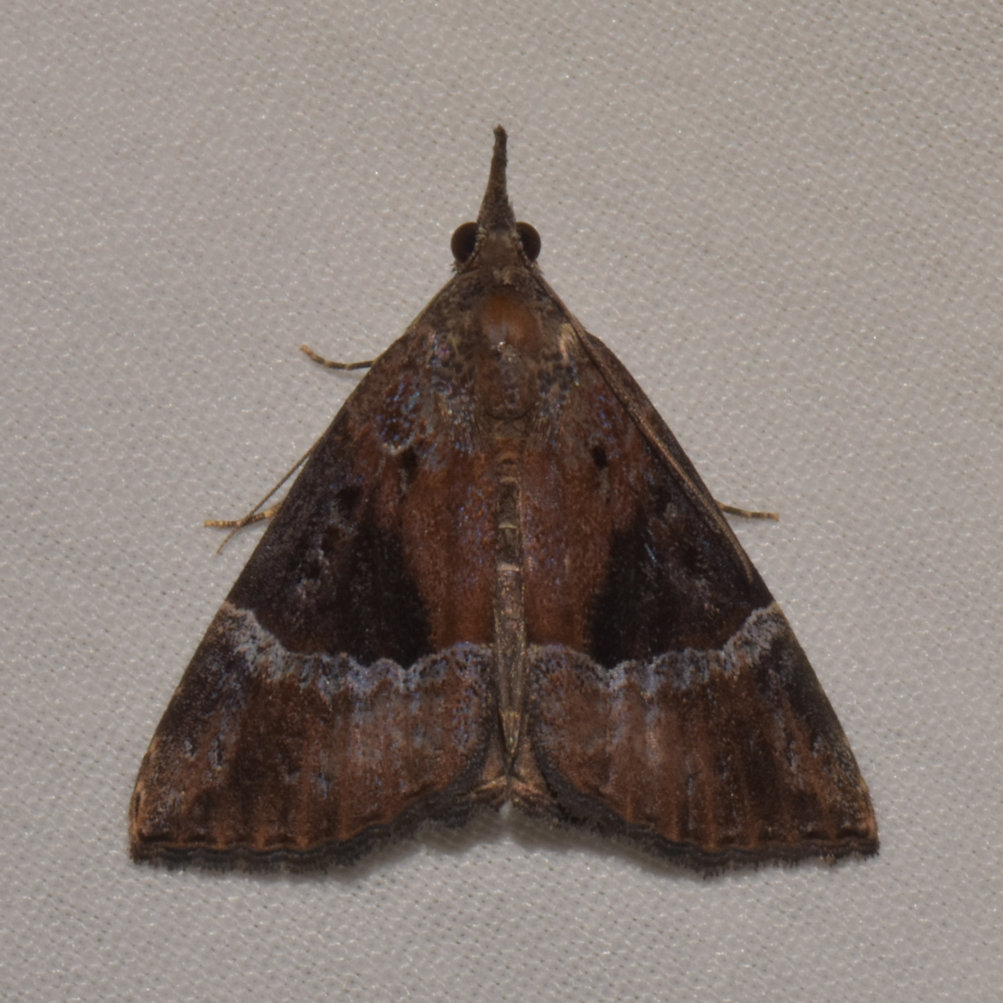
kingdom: Animalia
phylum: Arthropoda
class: Insecta
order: Lepidoptera
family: Erebidae
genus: Hypena
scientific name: Hypena vetustalis
